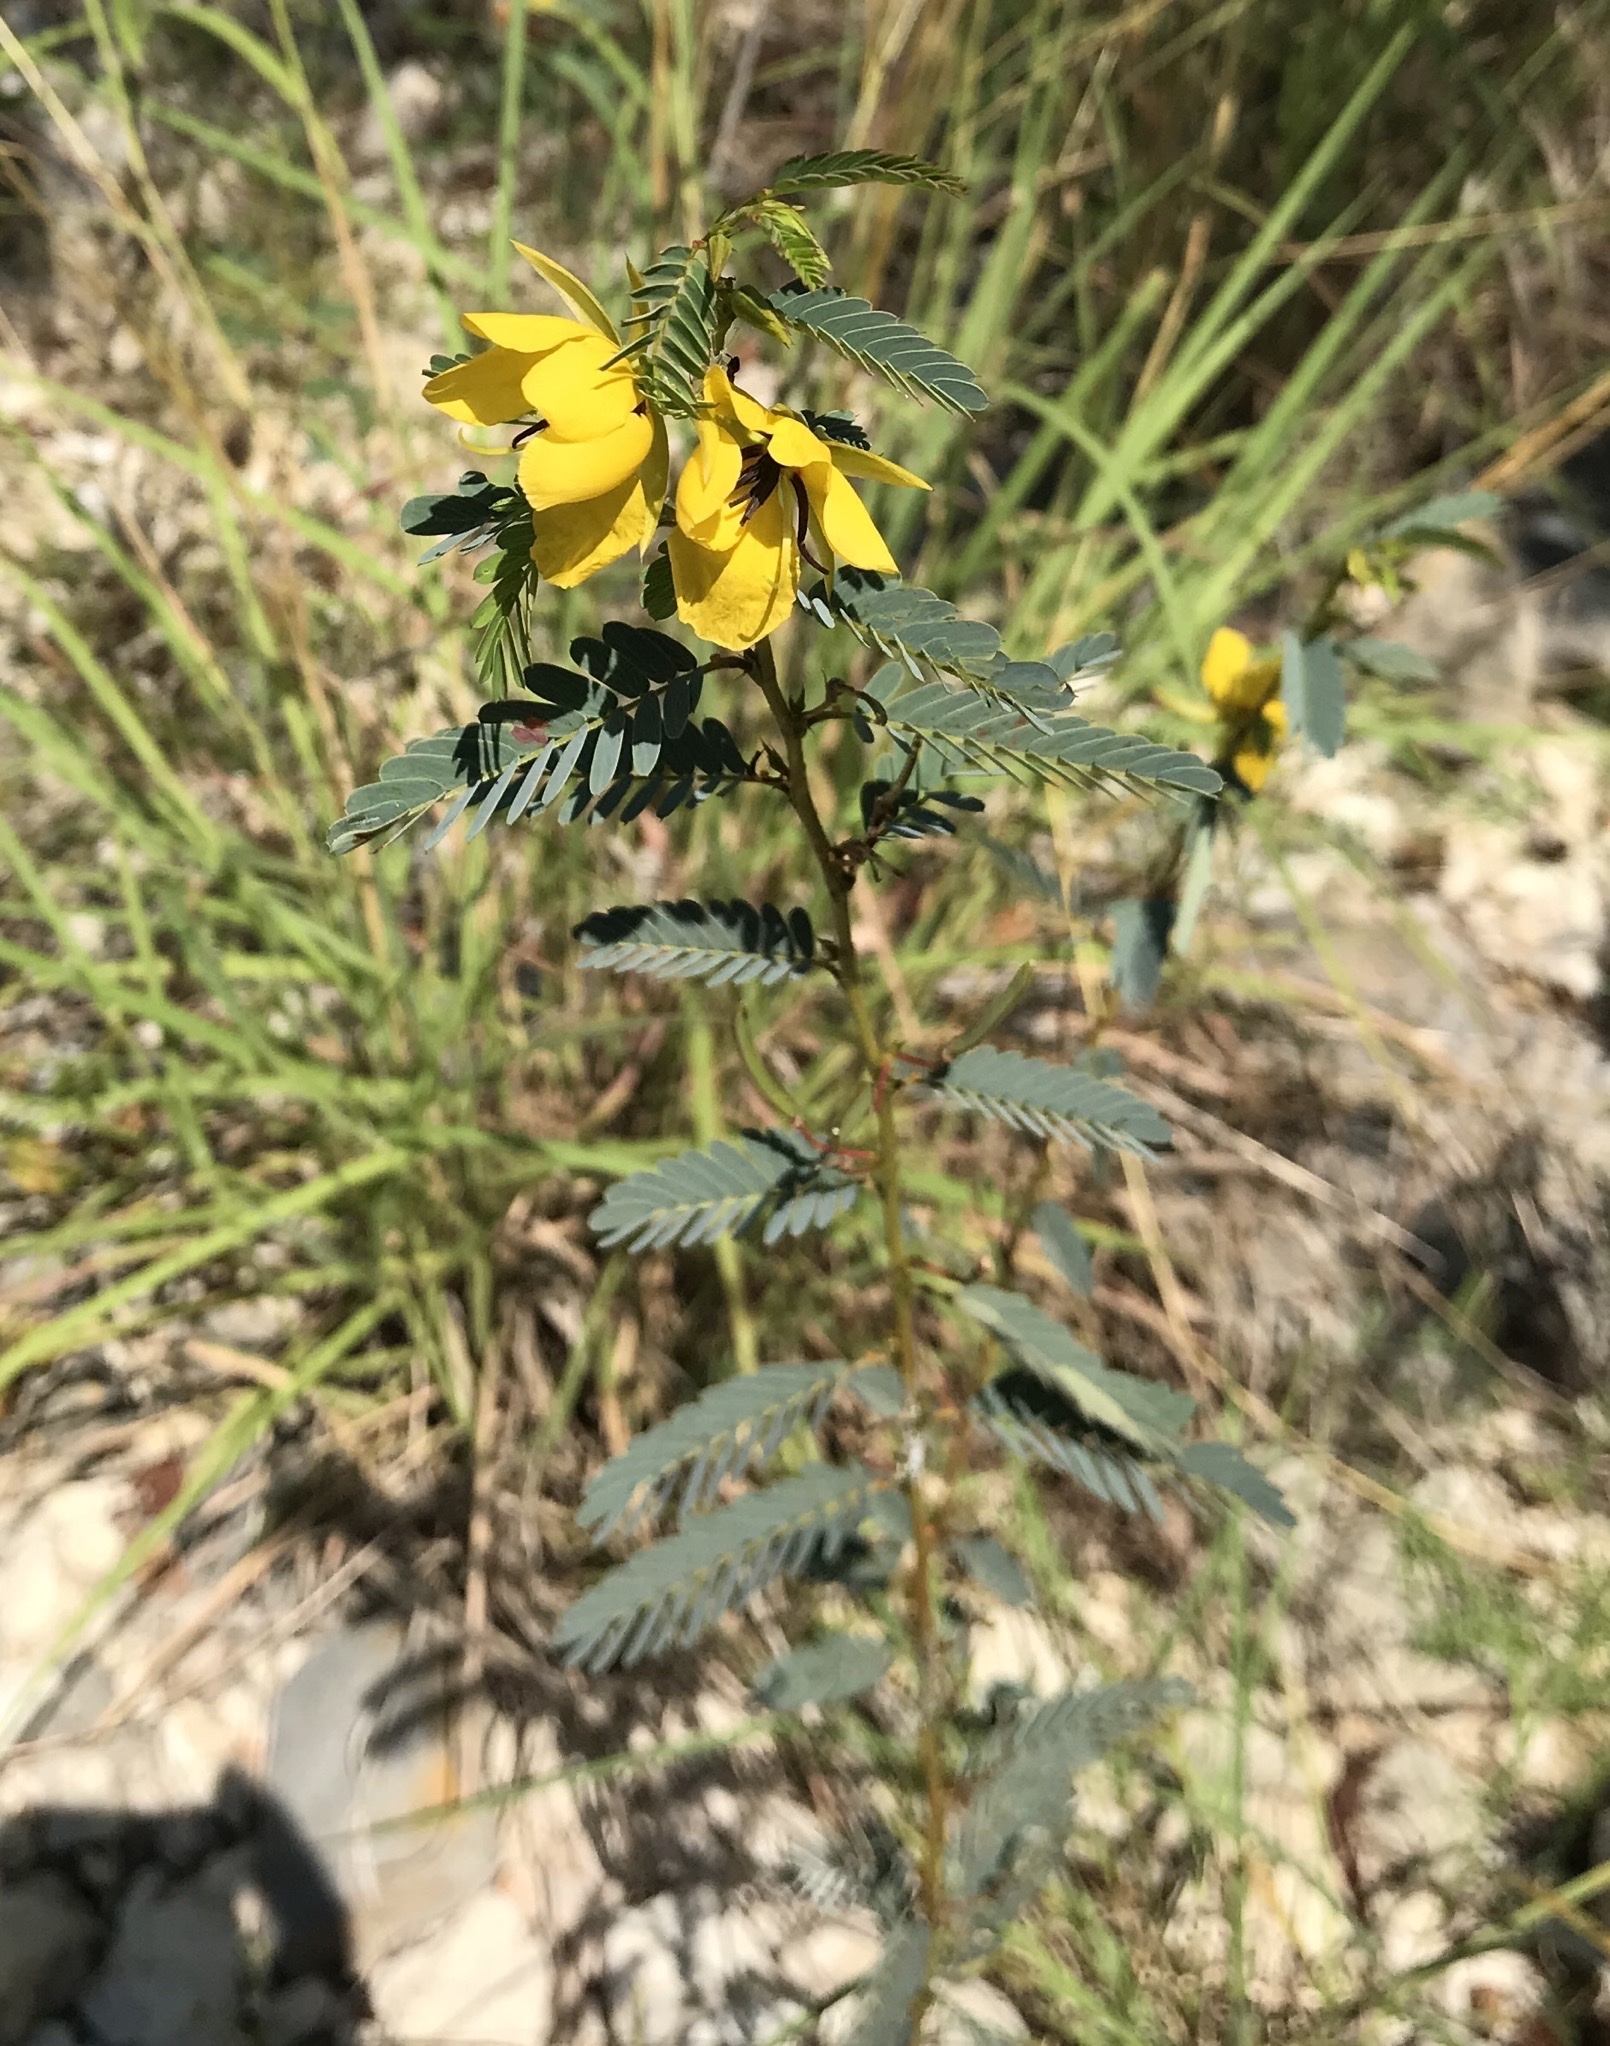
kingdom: Plantae
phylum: Tracheophyta
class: Magnoliopsida
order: Fabales
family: Fabaceae
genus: Chamaecrista
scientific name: Chamaecrista fasciculata
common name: Golden cassia
